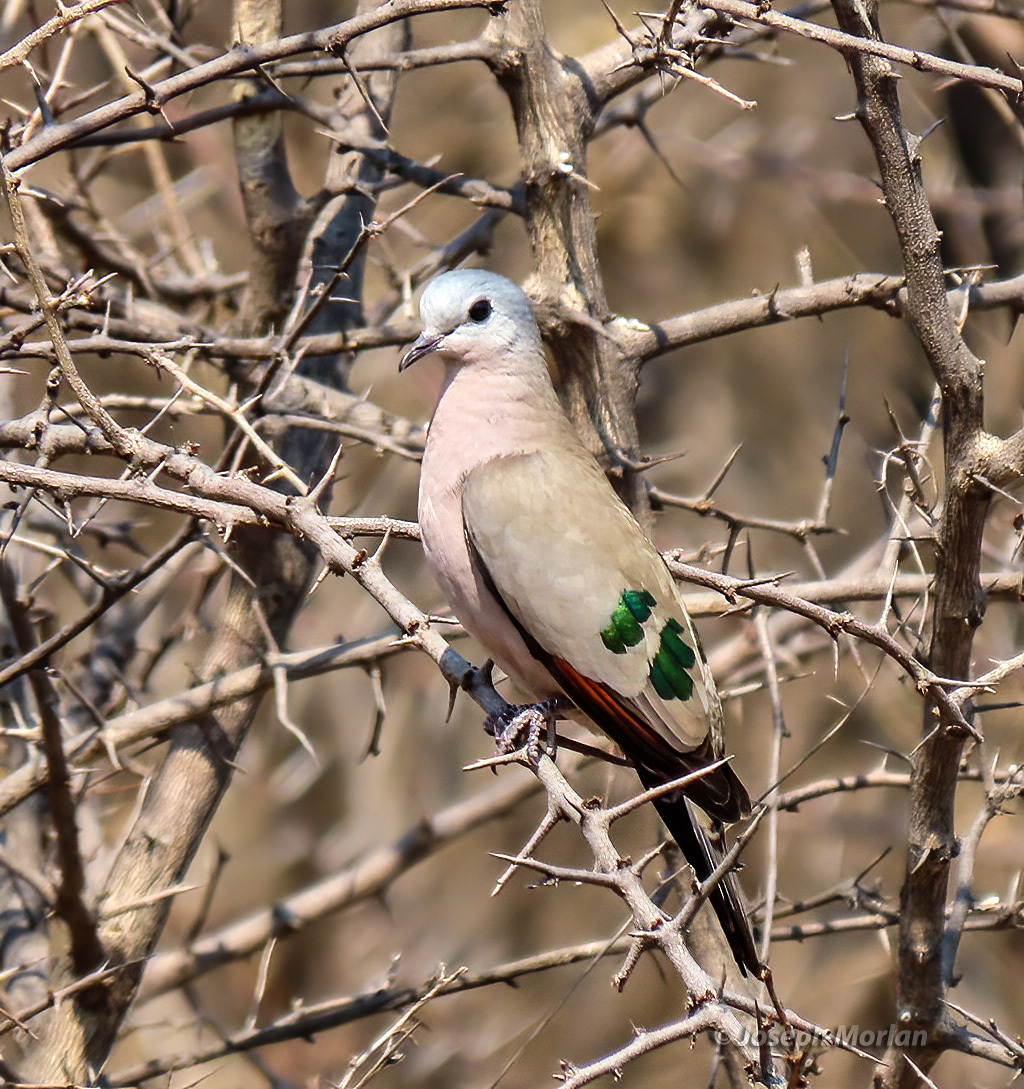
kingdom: Animalia
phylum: Chordata
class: Aves
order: Columbiformes
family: Columbidae
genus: Turtur
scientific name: Turtur chalcospilos
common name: Emerald-spotted wood dove
